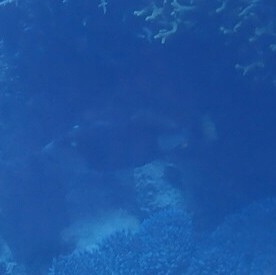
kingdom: Animalia
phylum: Chordata
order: Tetraodontiformes
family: Balistidae
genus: Balistoides
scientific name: Balistoides viridescens
